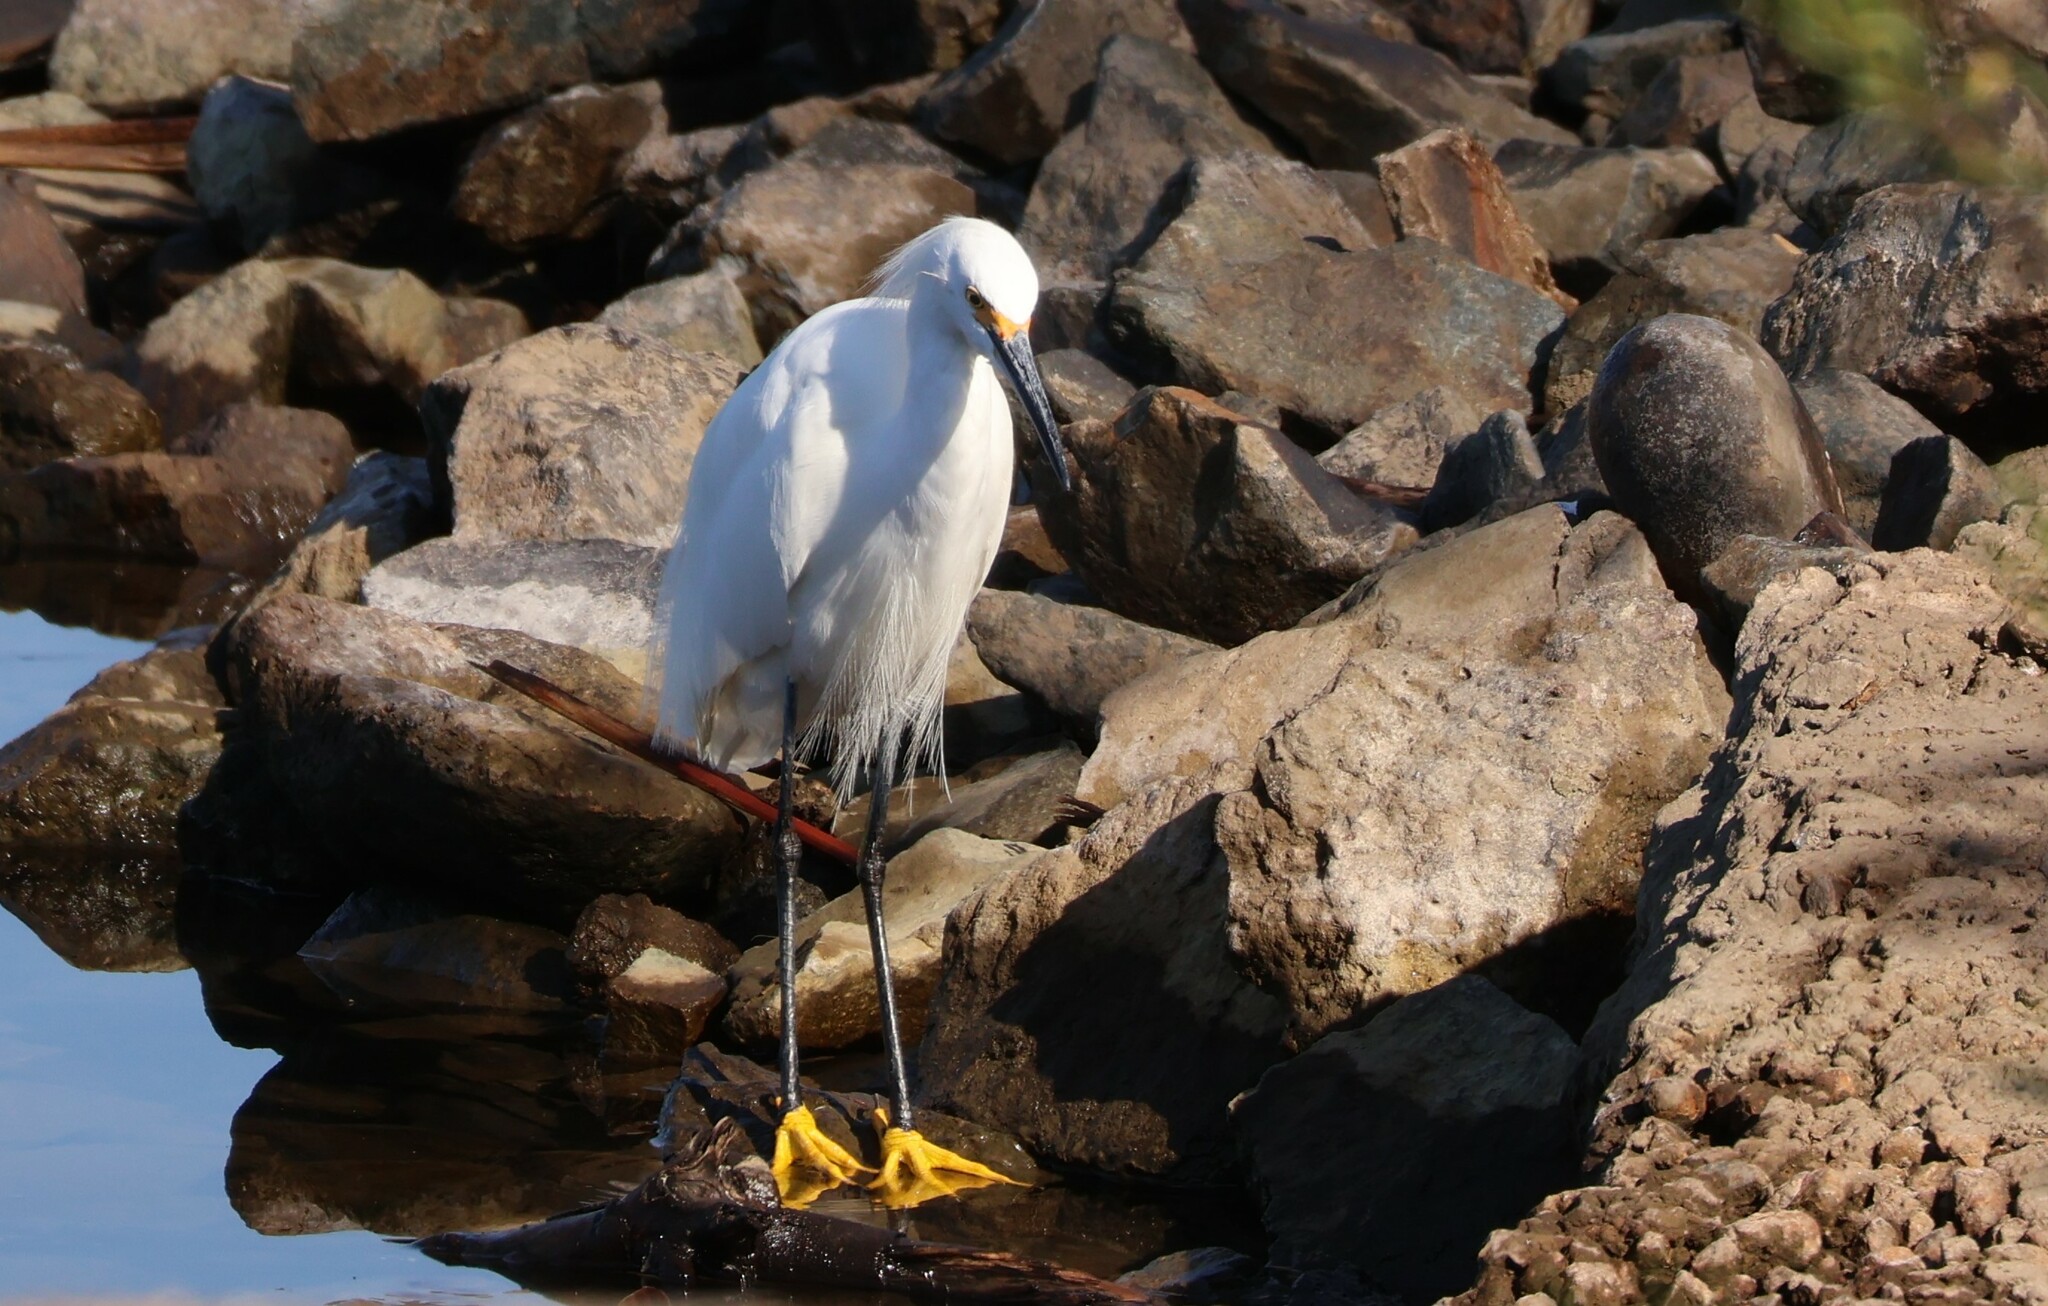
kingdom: Animalia
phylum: Chordata
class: Aves
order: Pelecaniformes
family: Ardeidae
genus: Egretta
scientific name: Egretta thula
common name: Snowy egret
